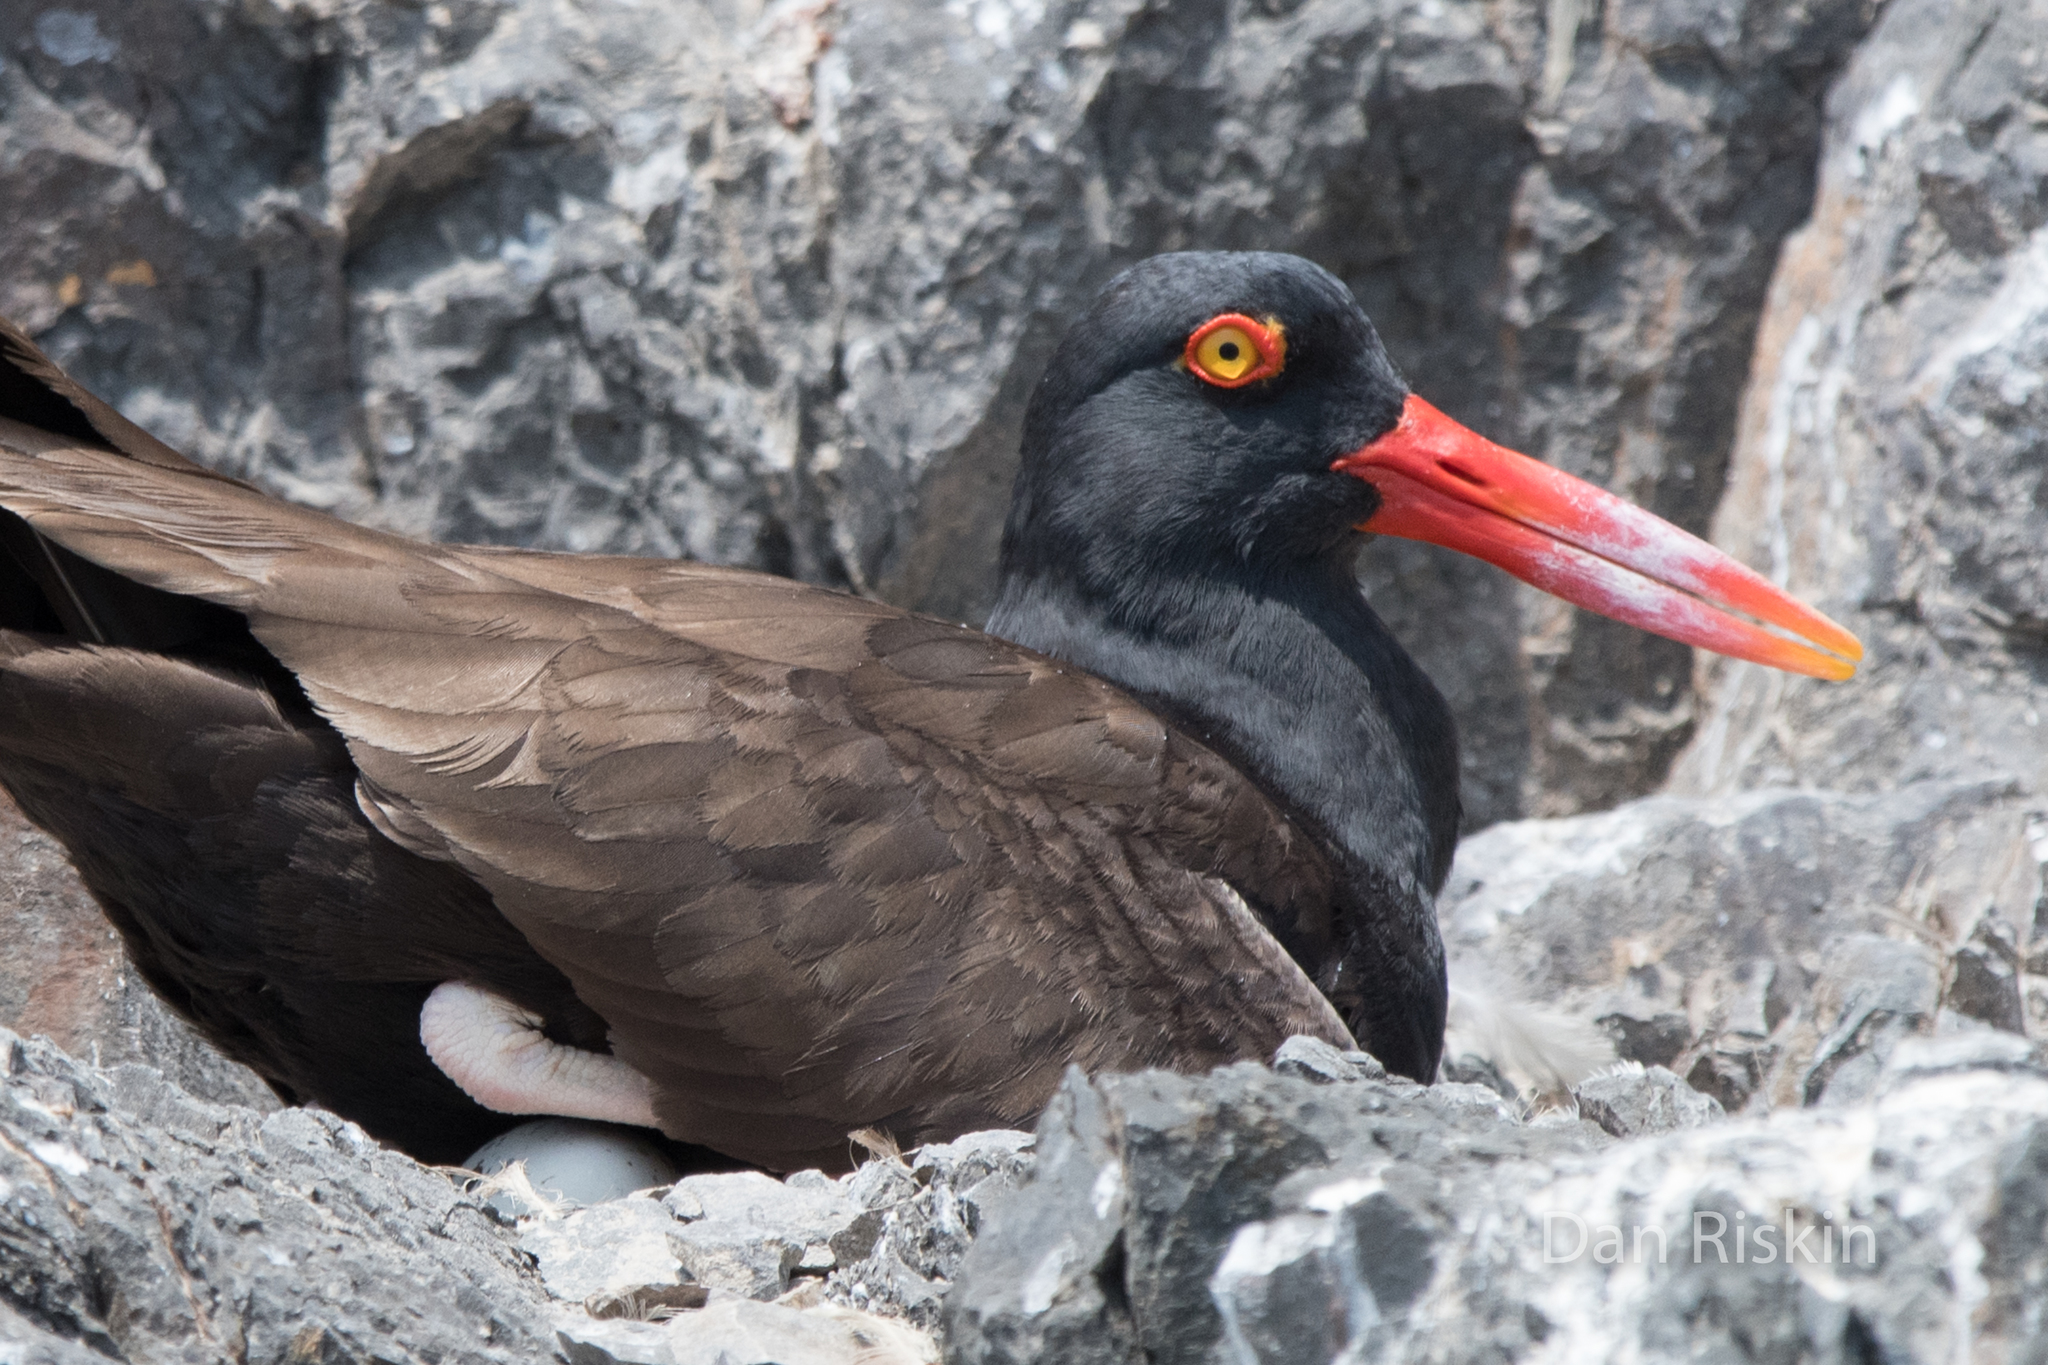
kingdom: Animalia
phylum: Chordata
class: Aves
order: Charadriiformes
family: Haematopodidae
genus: Haematopus
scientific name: Haematopus ater
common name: Blackish oystercatcher
